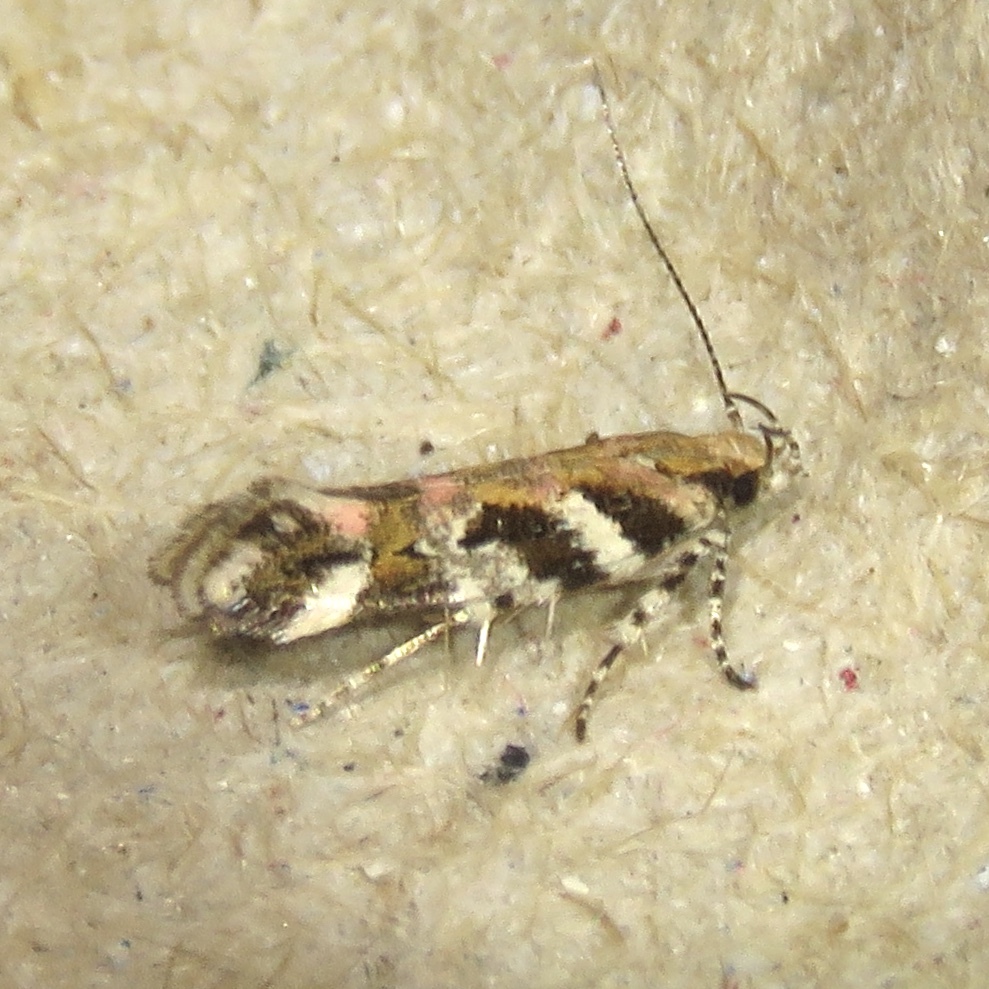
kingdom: Animalia
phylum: Arthropoda
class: Insecta
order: Lepidoptera
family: Gelechiidae
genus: Aristotelia
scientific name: Aristotelia roseosuffusella
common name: Pink-washed aristotelia moth
